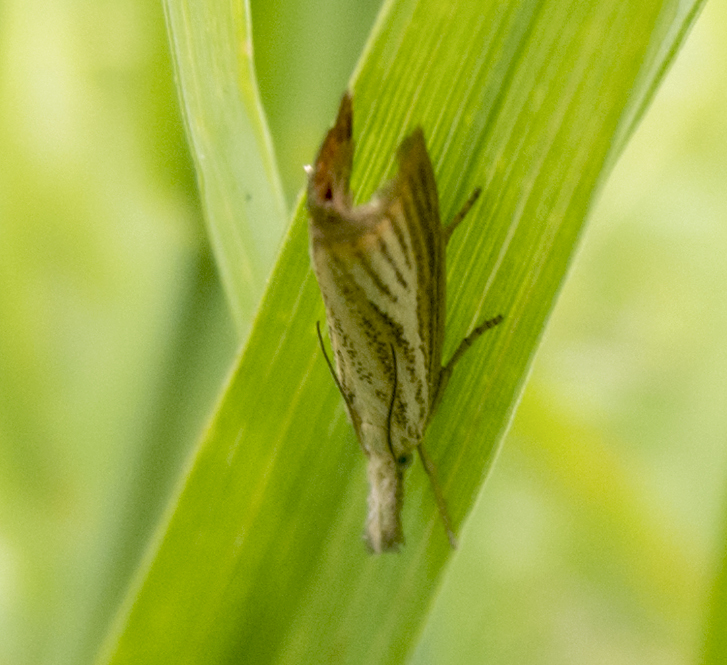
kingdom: Animalia
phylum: Arthropoda
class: Insecta
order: Lepidoptera
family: Crambidae
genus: Chrysoteuchia
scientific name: Chrysoteuchia culmella
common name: Garden grass-veneer
